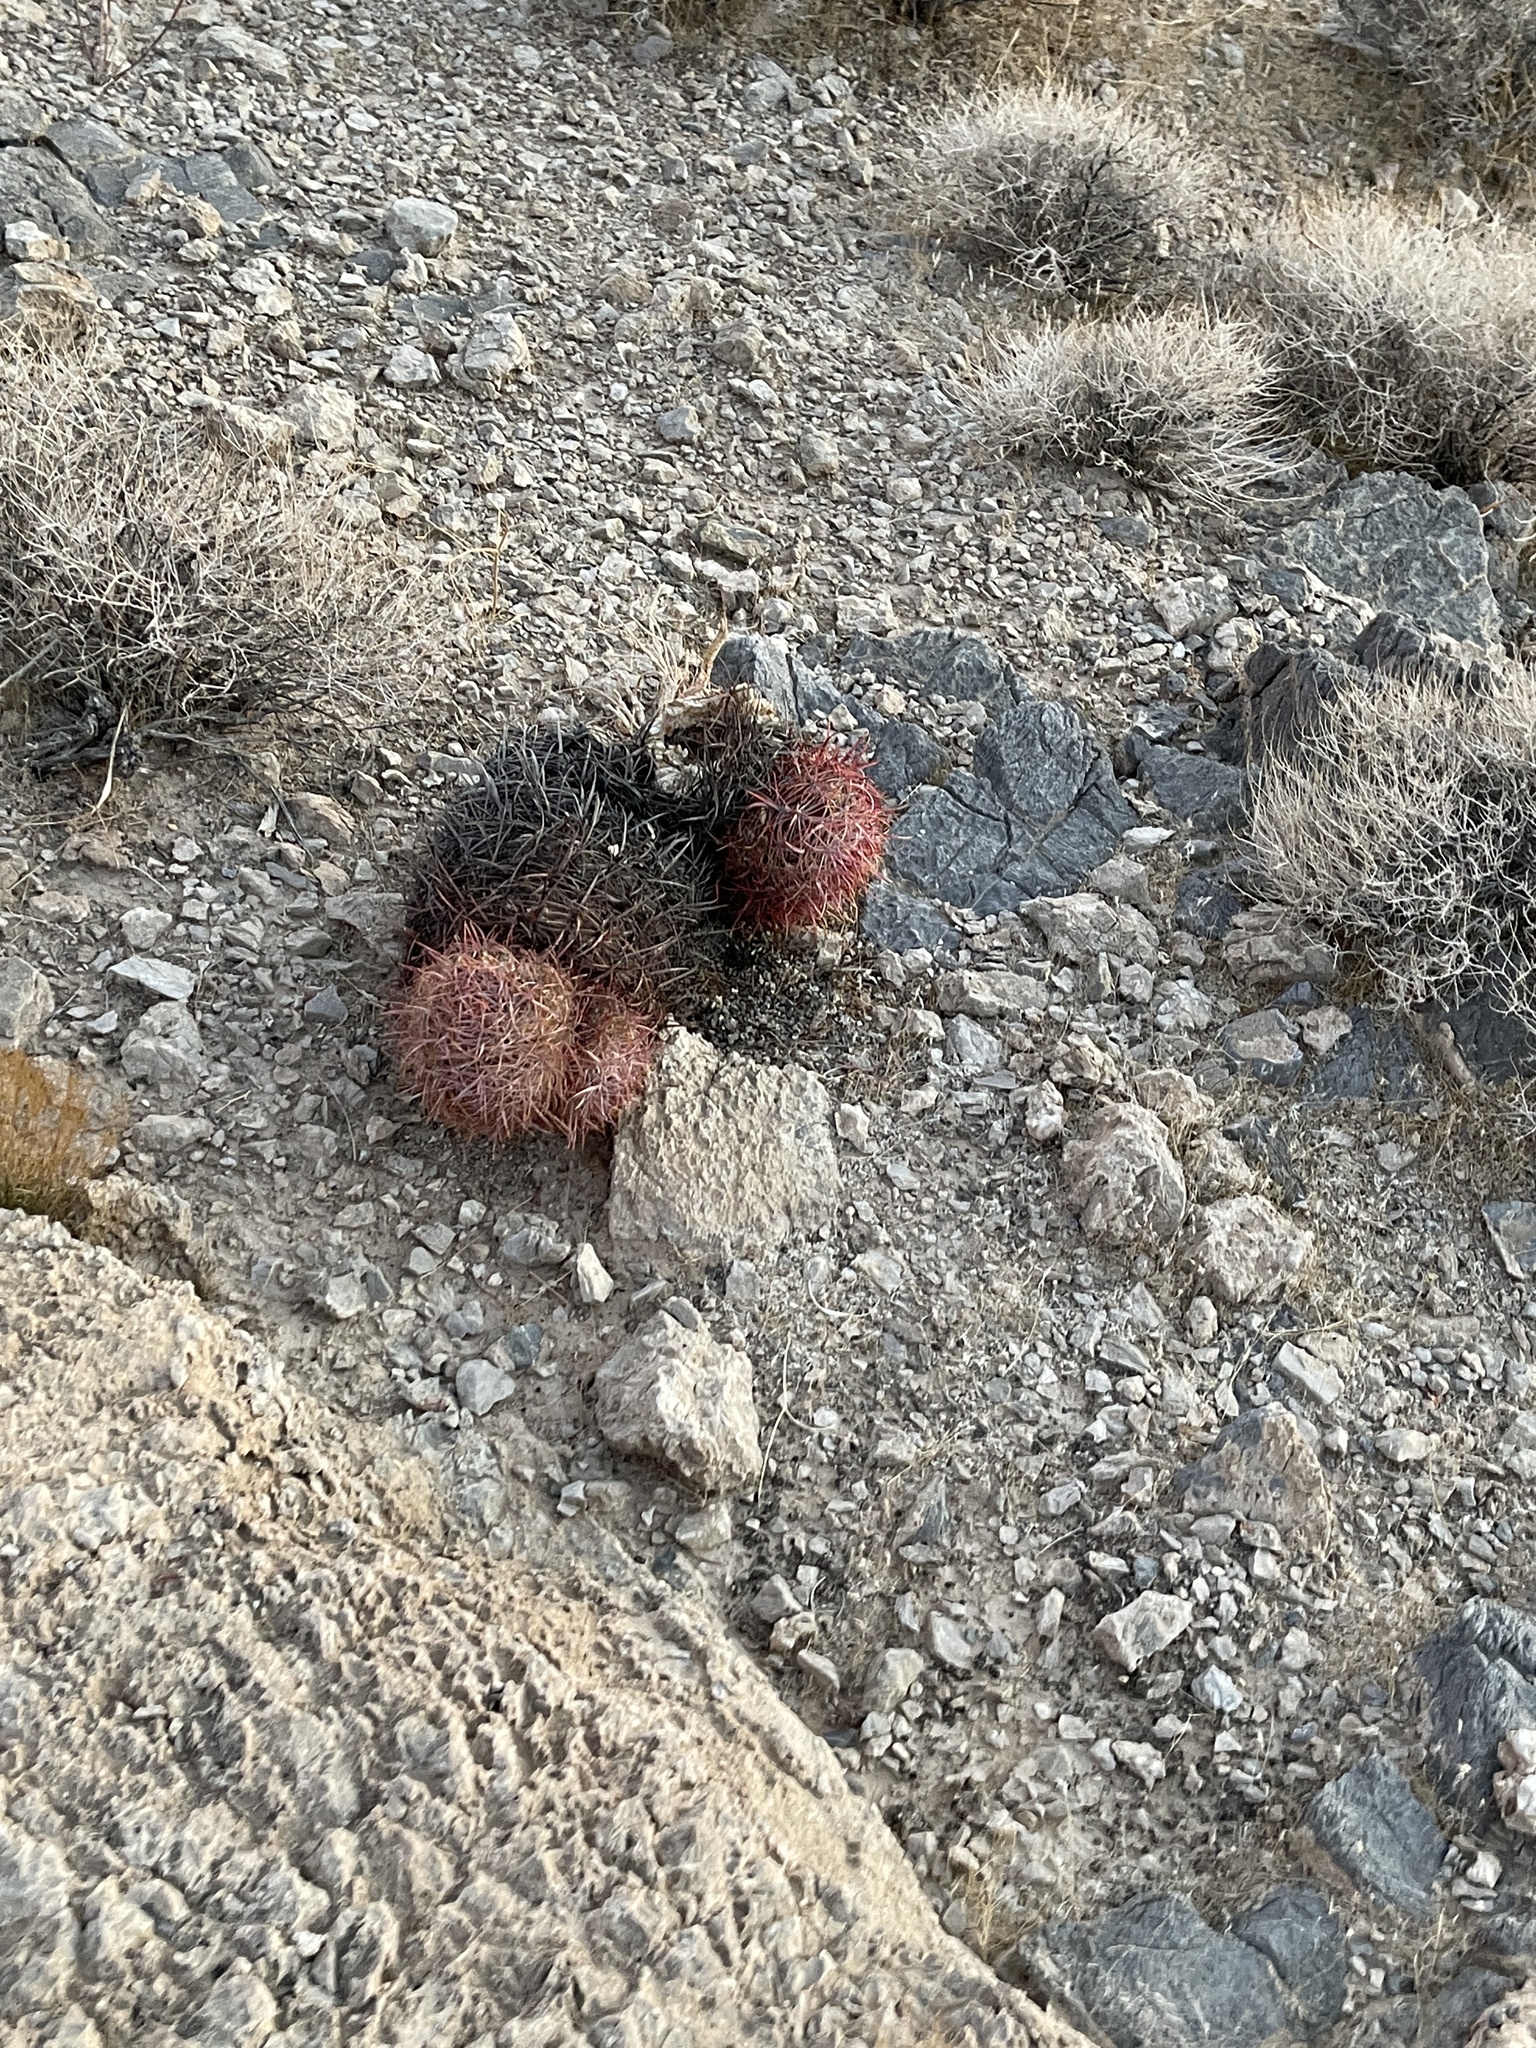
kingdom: Plantae
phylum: Tracheophyta
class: Magnoliopsida
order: Caryophyllales
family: Cactaceae
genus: Ferocactus
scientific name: Ferocactus cylindraceus
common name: California barrel cactus
